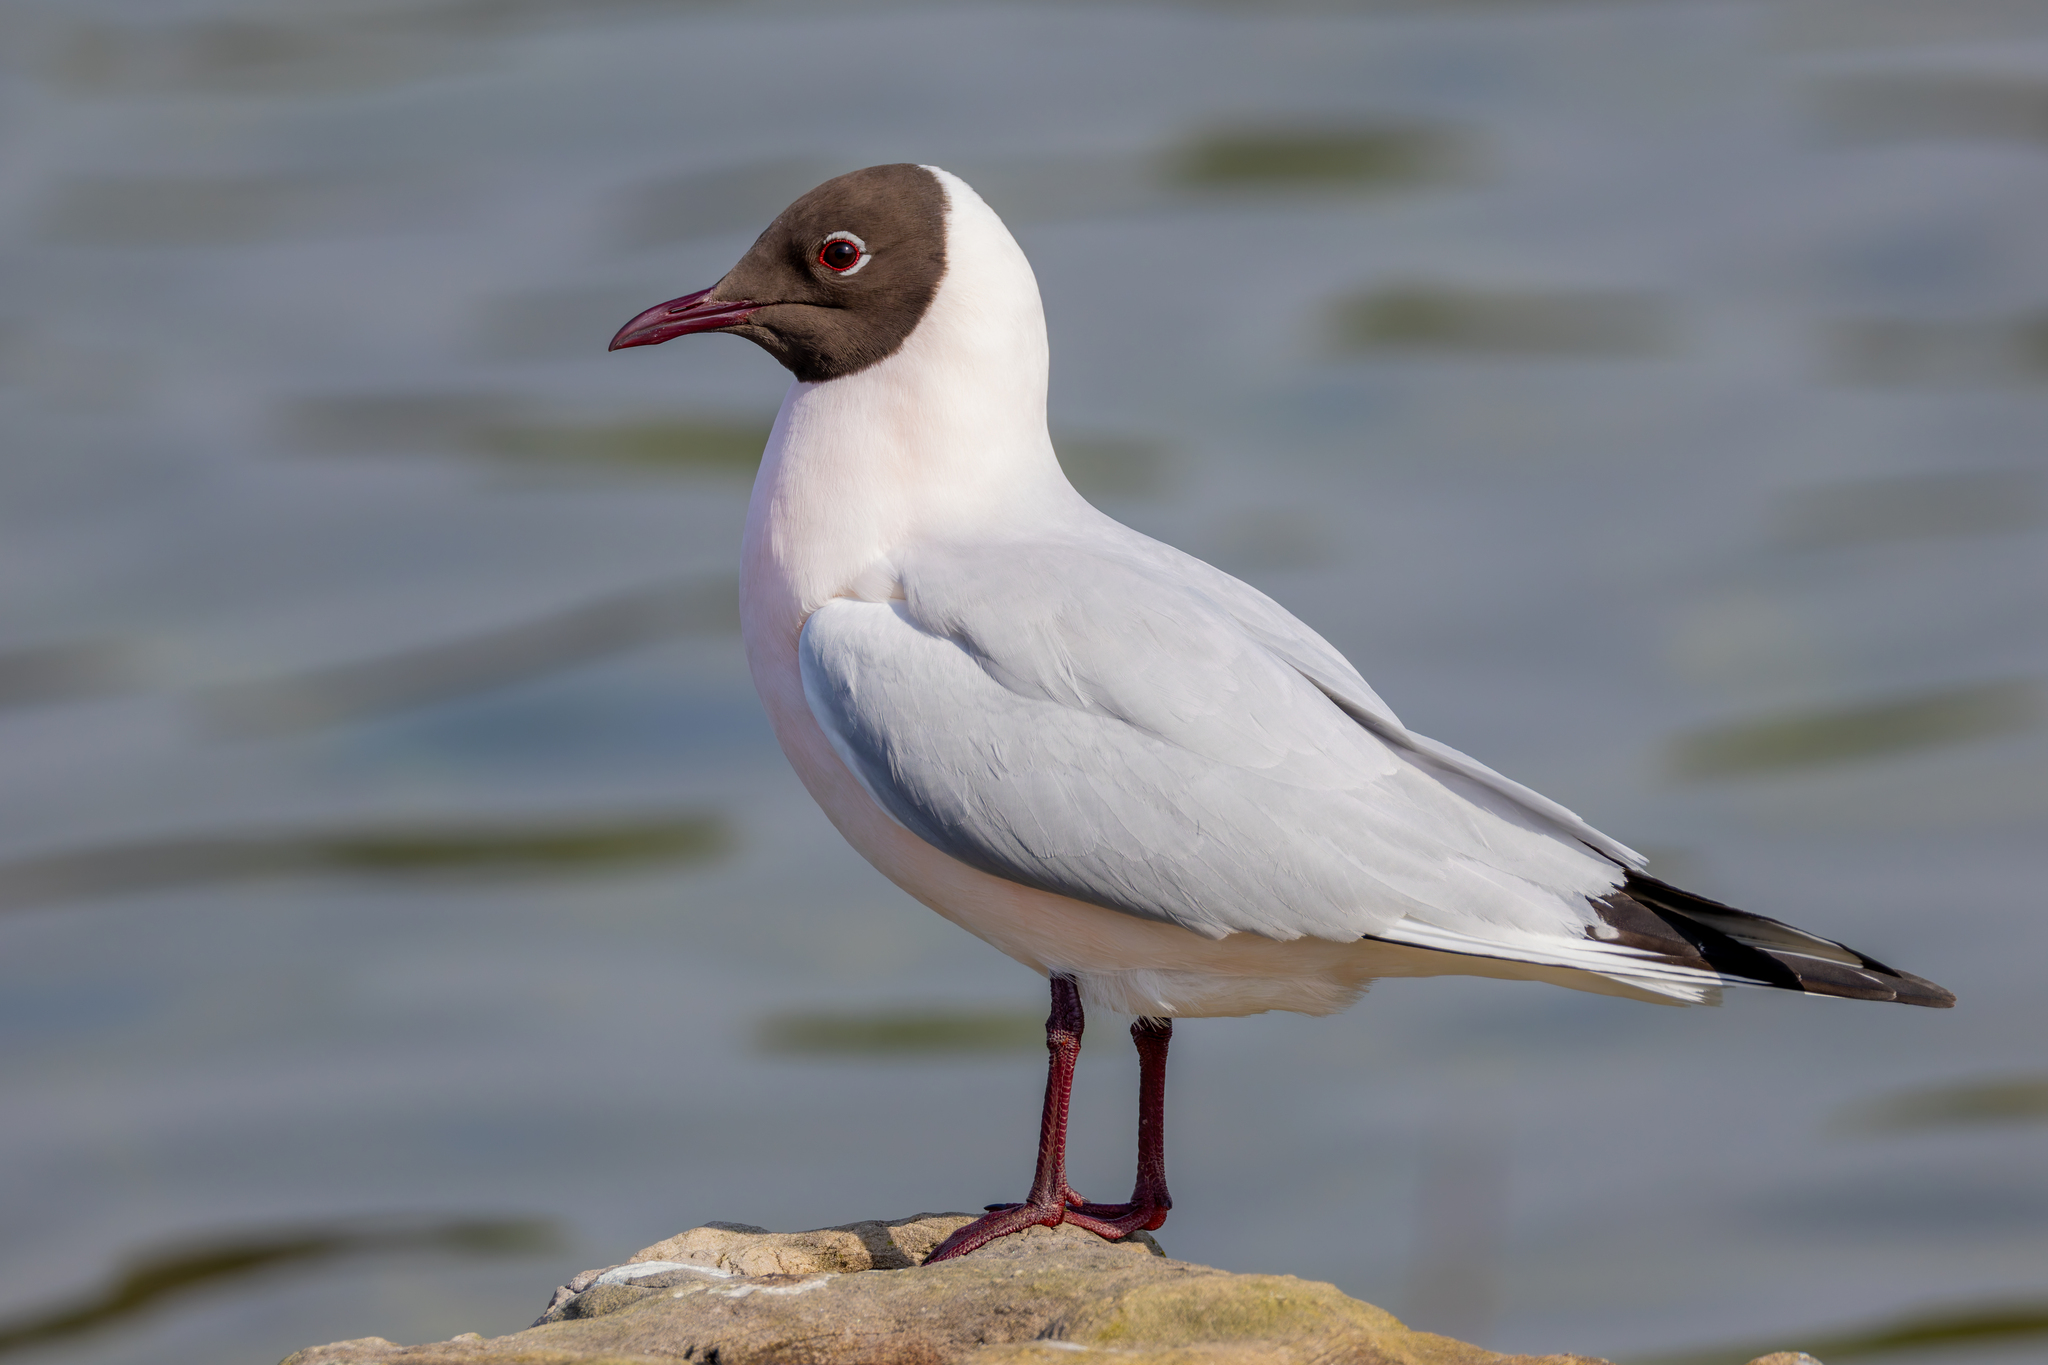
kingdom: Animalia
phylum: Chordata
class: Aves
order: Charadriiformes
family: Laridae
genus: Chroicocephalus
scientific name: Chroicocephalus ridibundus
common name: Black-headed gull
